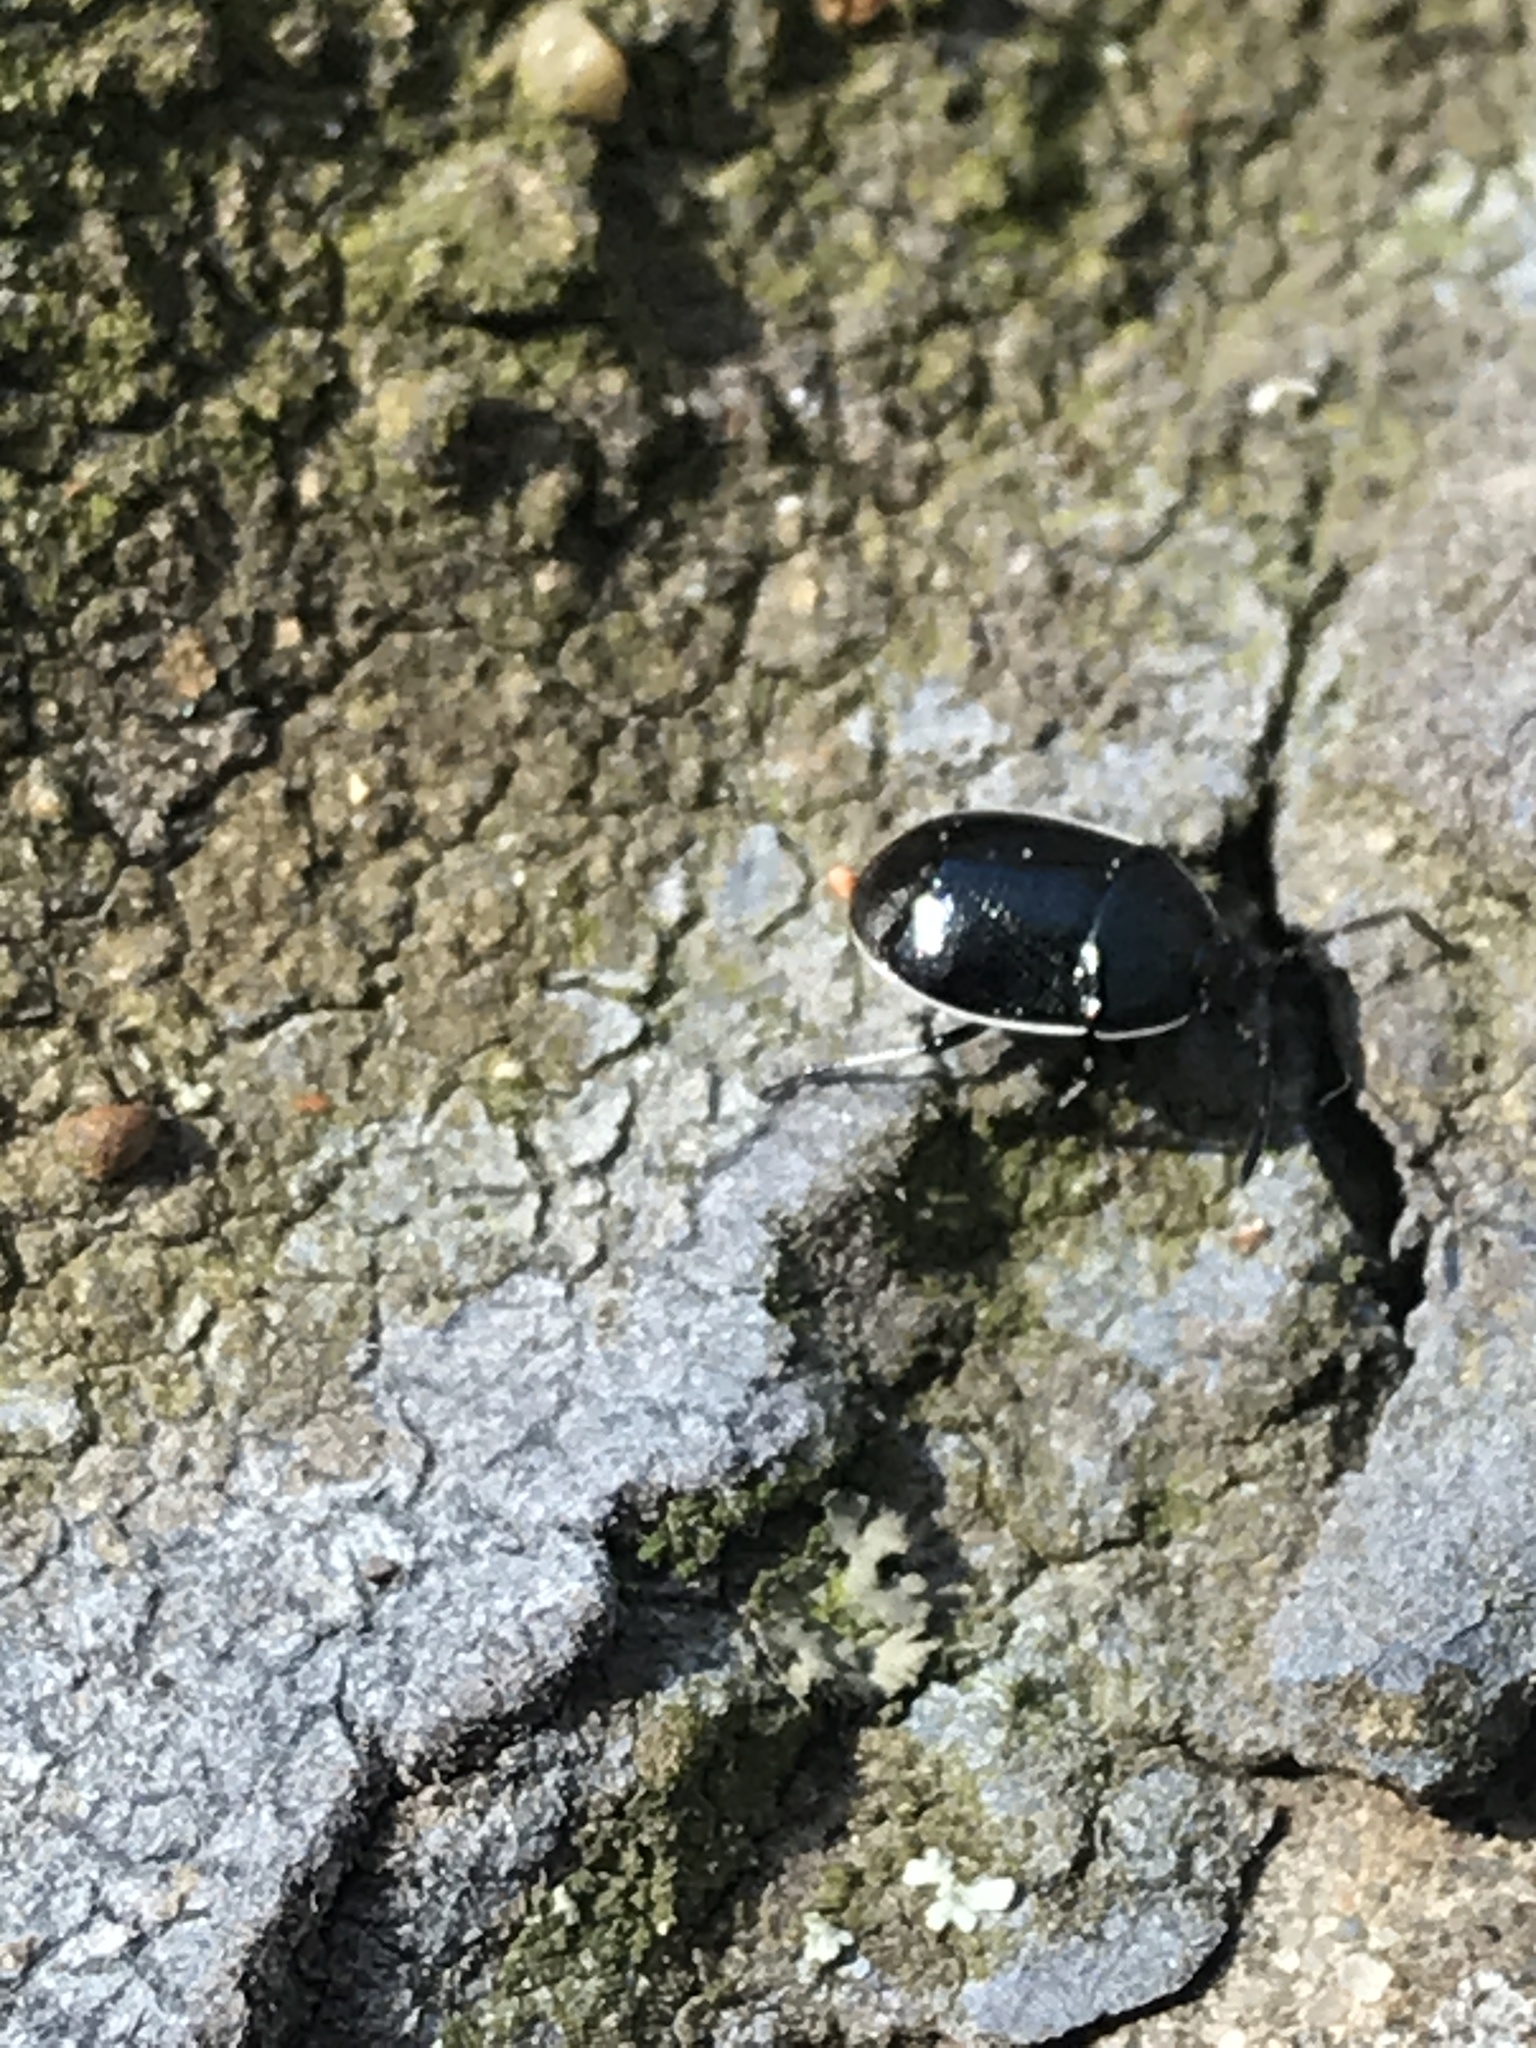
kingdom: Animalia
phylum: Arthropoda
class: Insecta
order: Hemiptera
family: Cydnidae
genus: Sehirus
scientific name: Sehirus cinctus
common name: White-margined burrower bug
